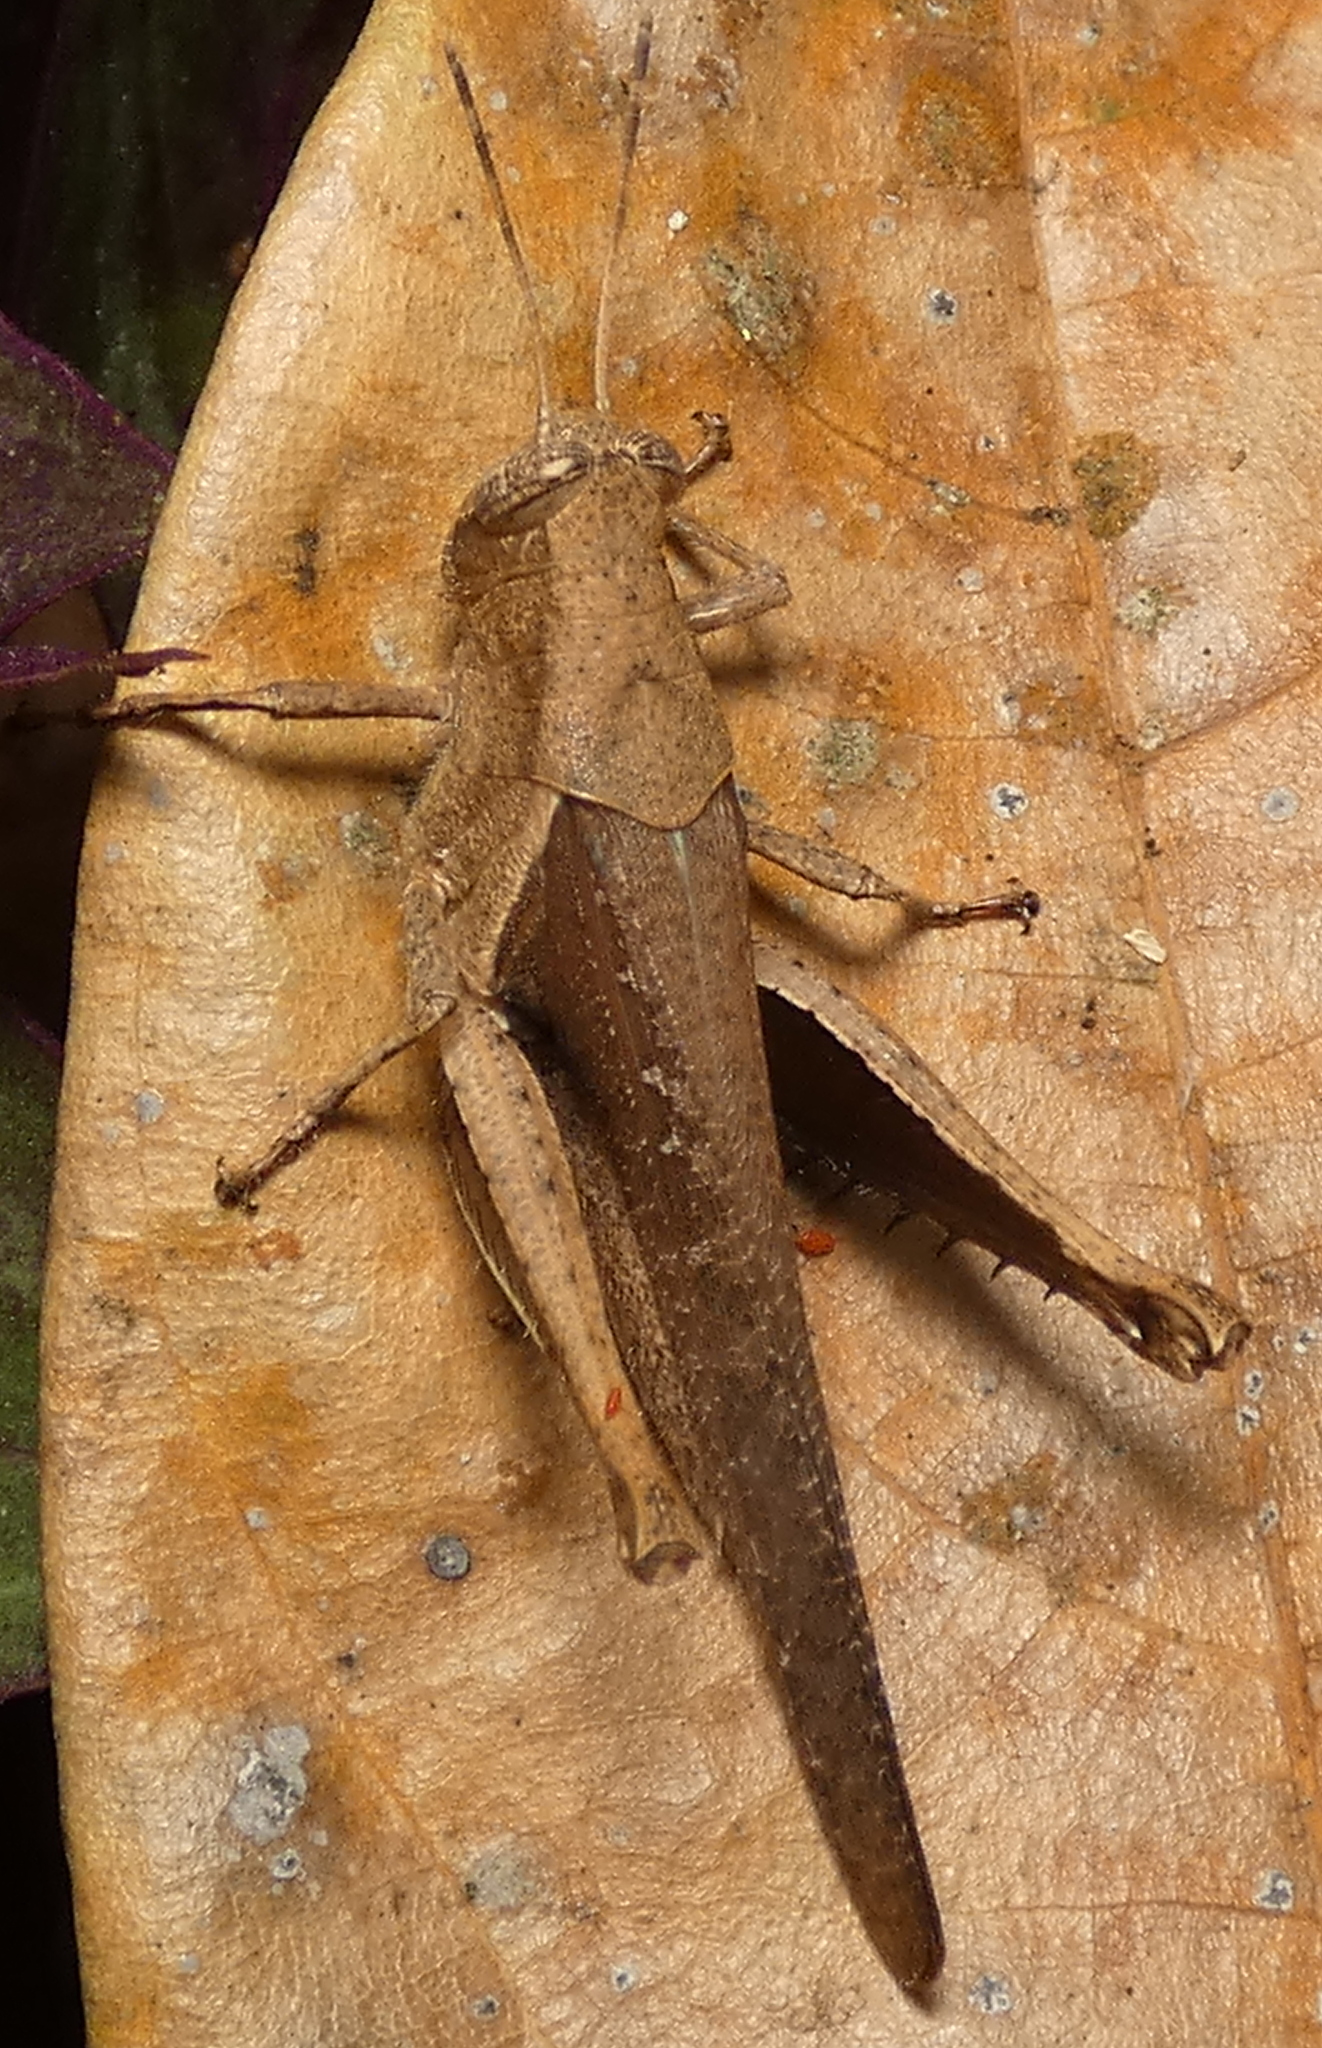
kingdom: Animalia
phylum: Arthropoda
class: Insecta
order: Orthoptera
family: Acrididae
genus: Abracris
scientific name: Abracris flavolineata
